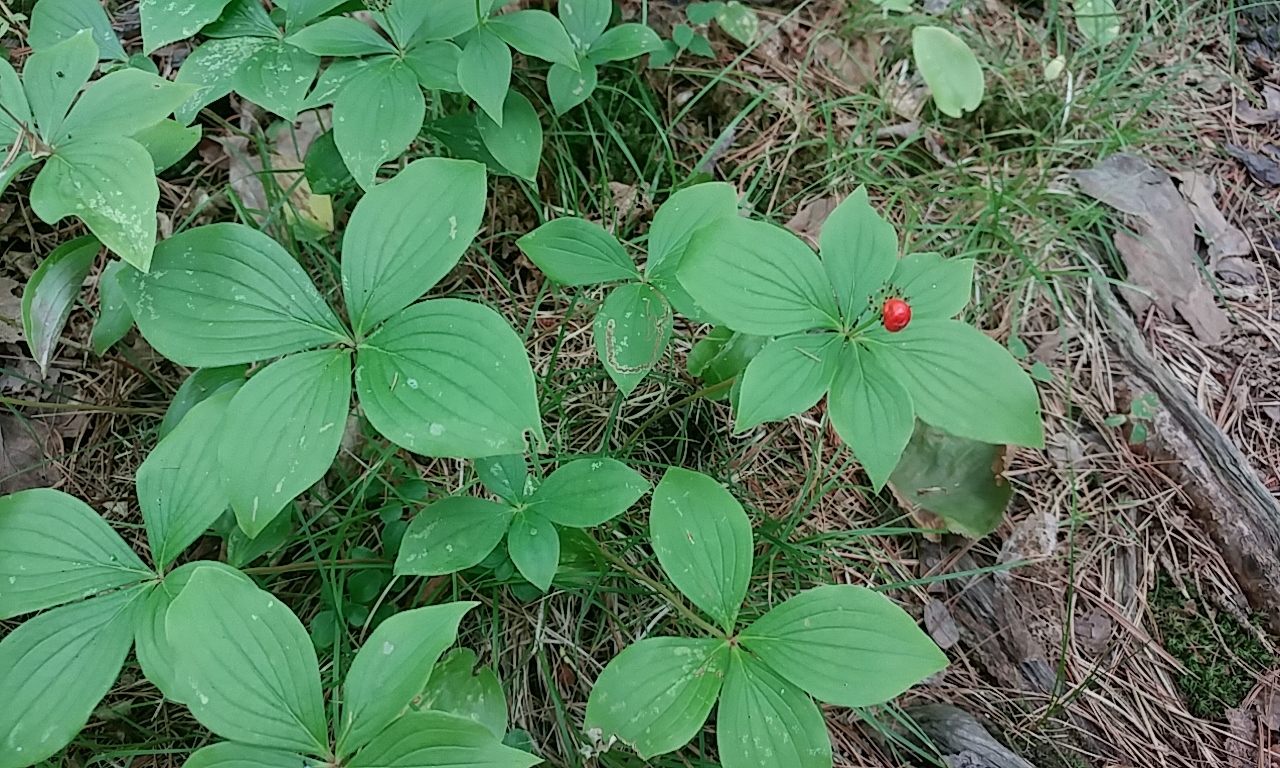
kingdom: Plantae
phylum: Tracheophyta
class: Magnoliopsida
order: Cornales
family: Cornaceae
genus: Cornus
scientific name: Cornus canadensis
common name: Creeping dogwood
